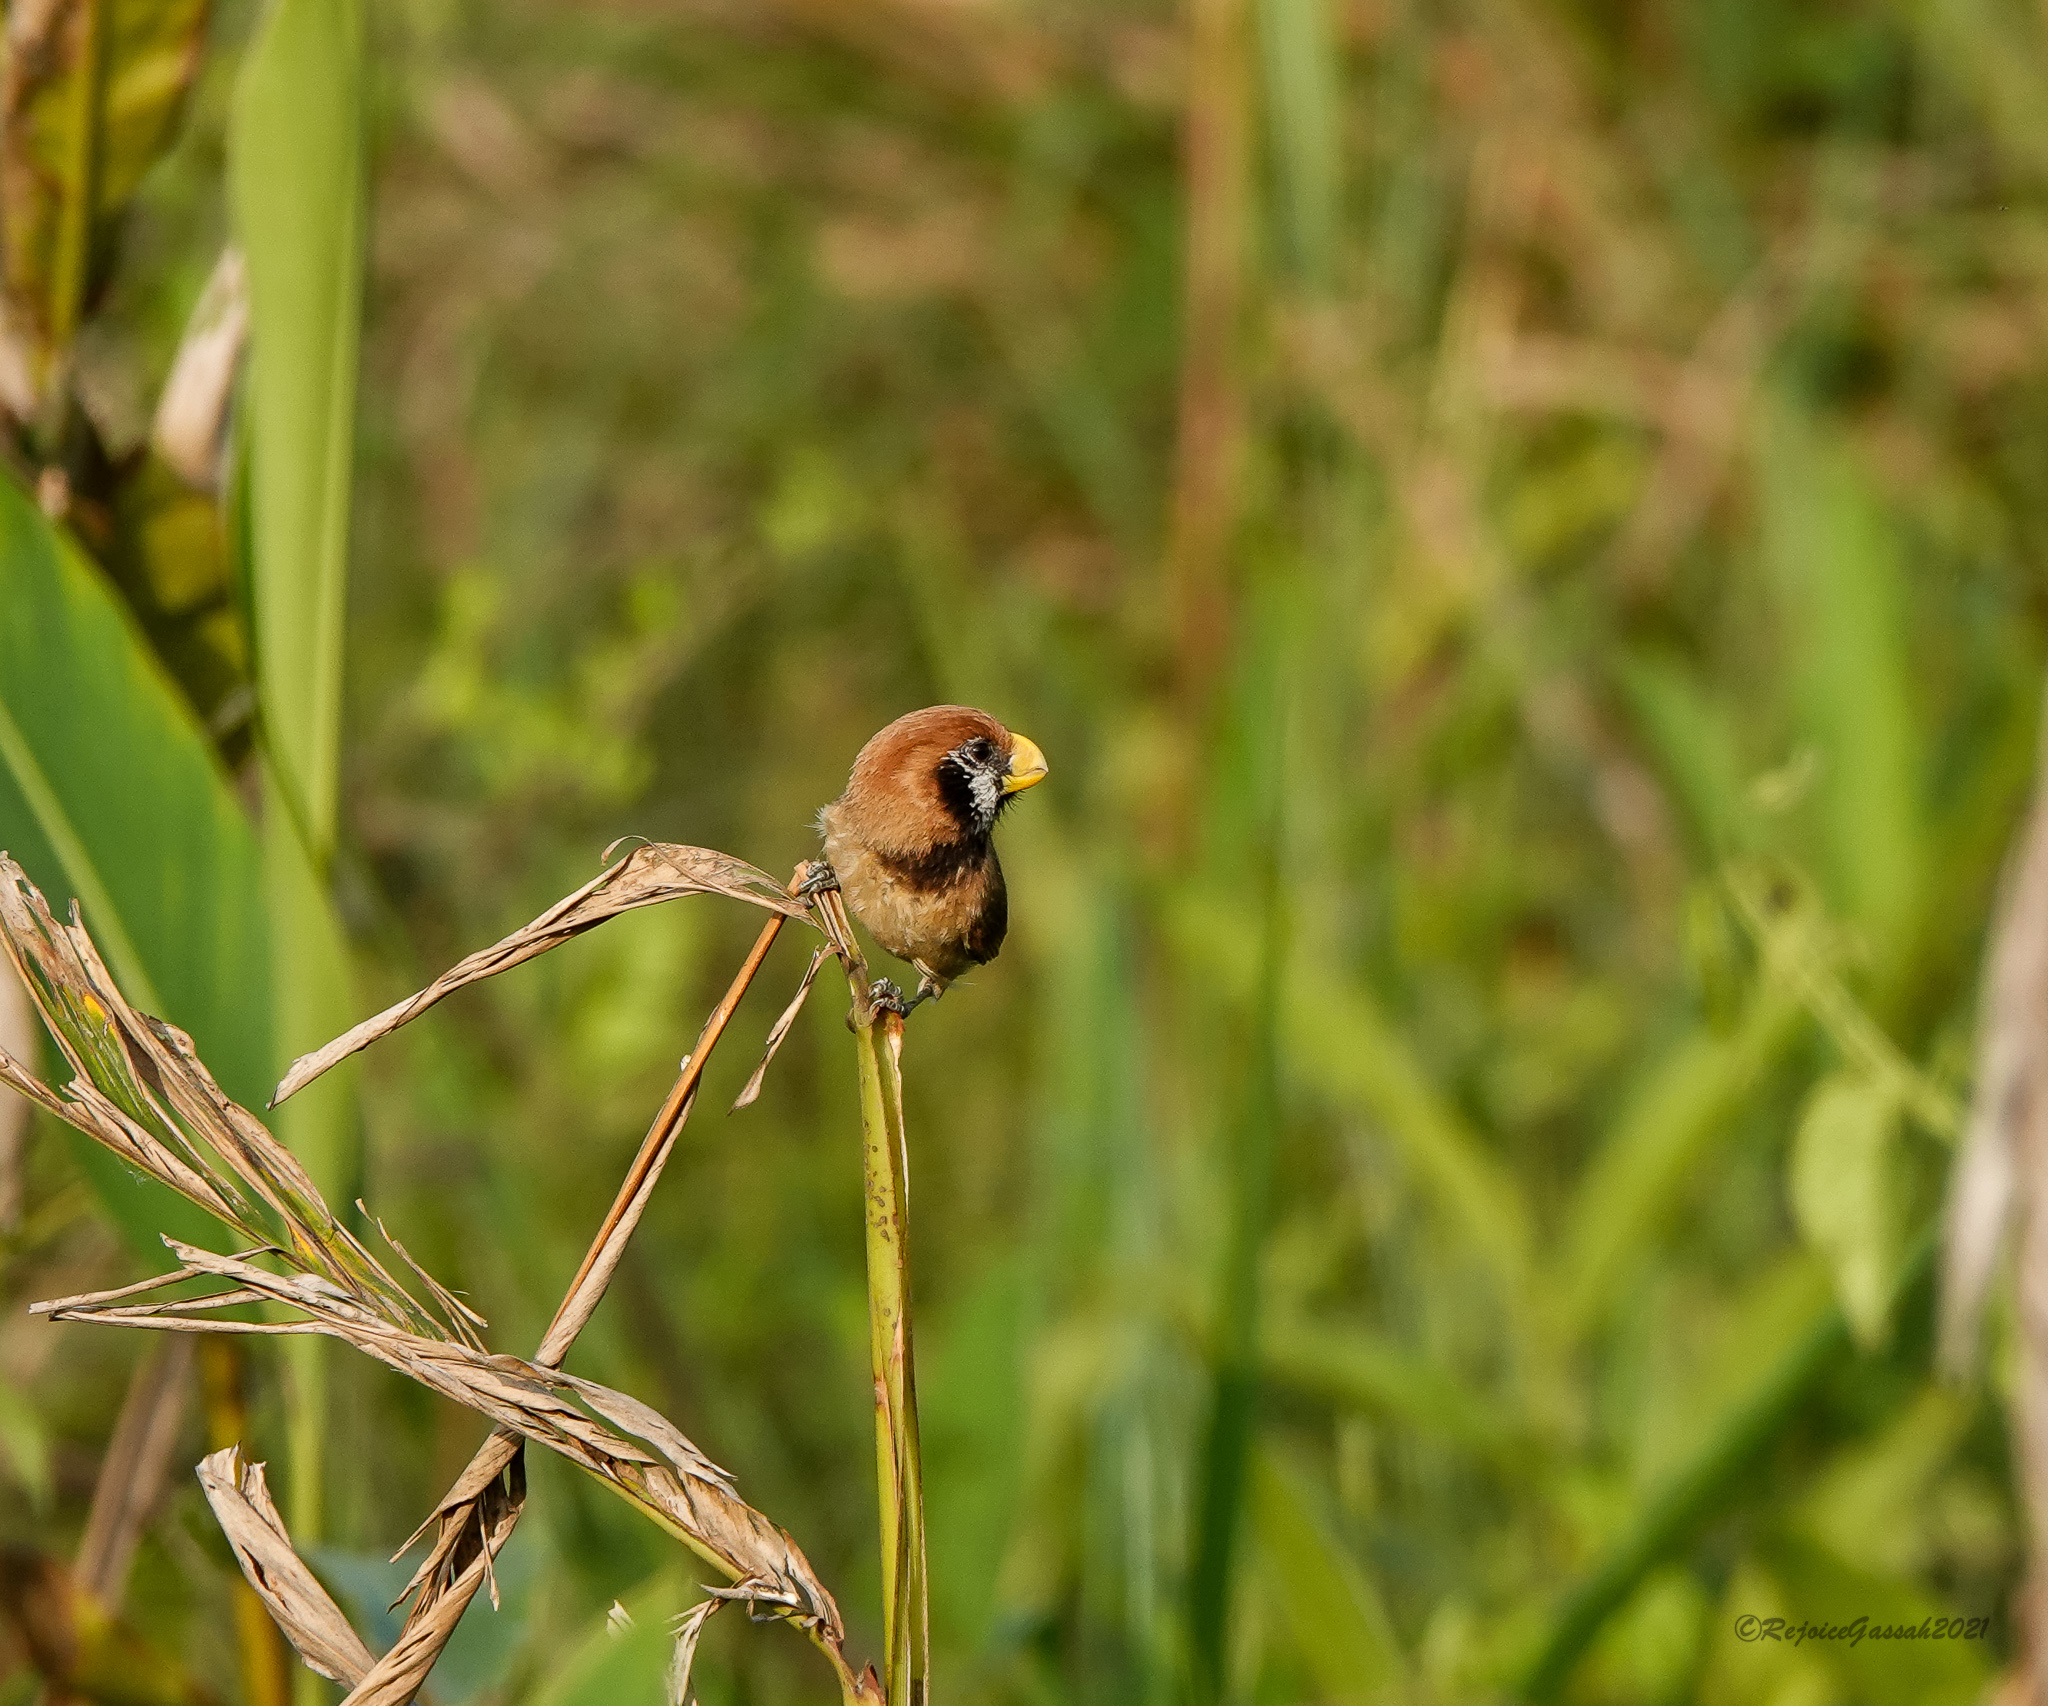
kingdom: Animalia
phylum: Chordata
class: Aves
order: Passeriformes
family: Sylviidae
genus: Paradoxornis
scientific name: Paradoxornis flavirostris
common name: Black-breasted parrotbill
